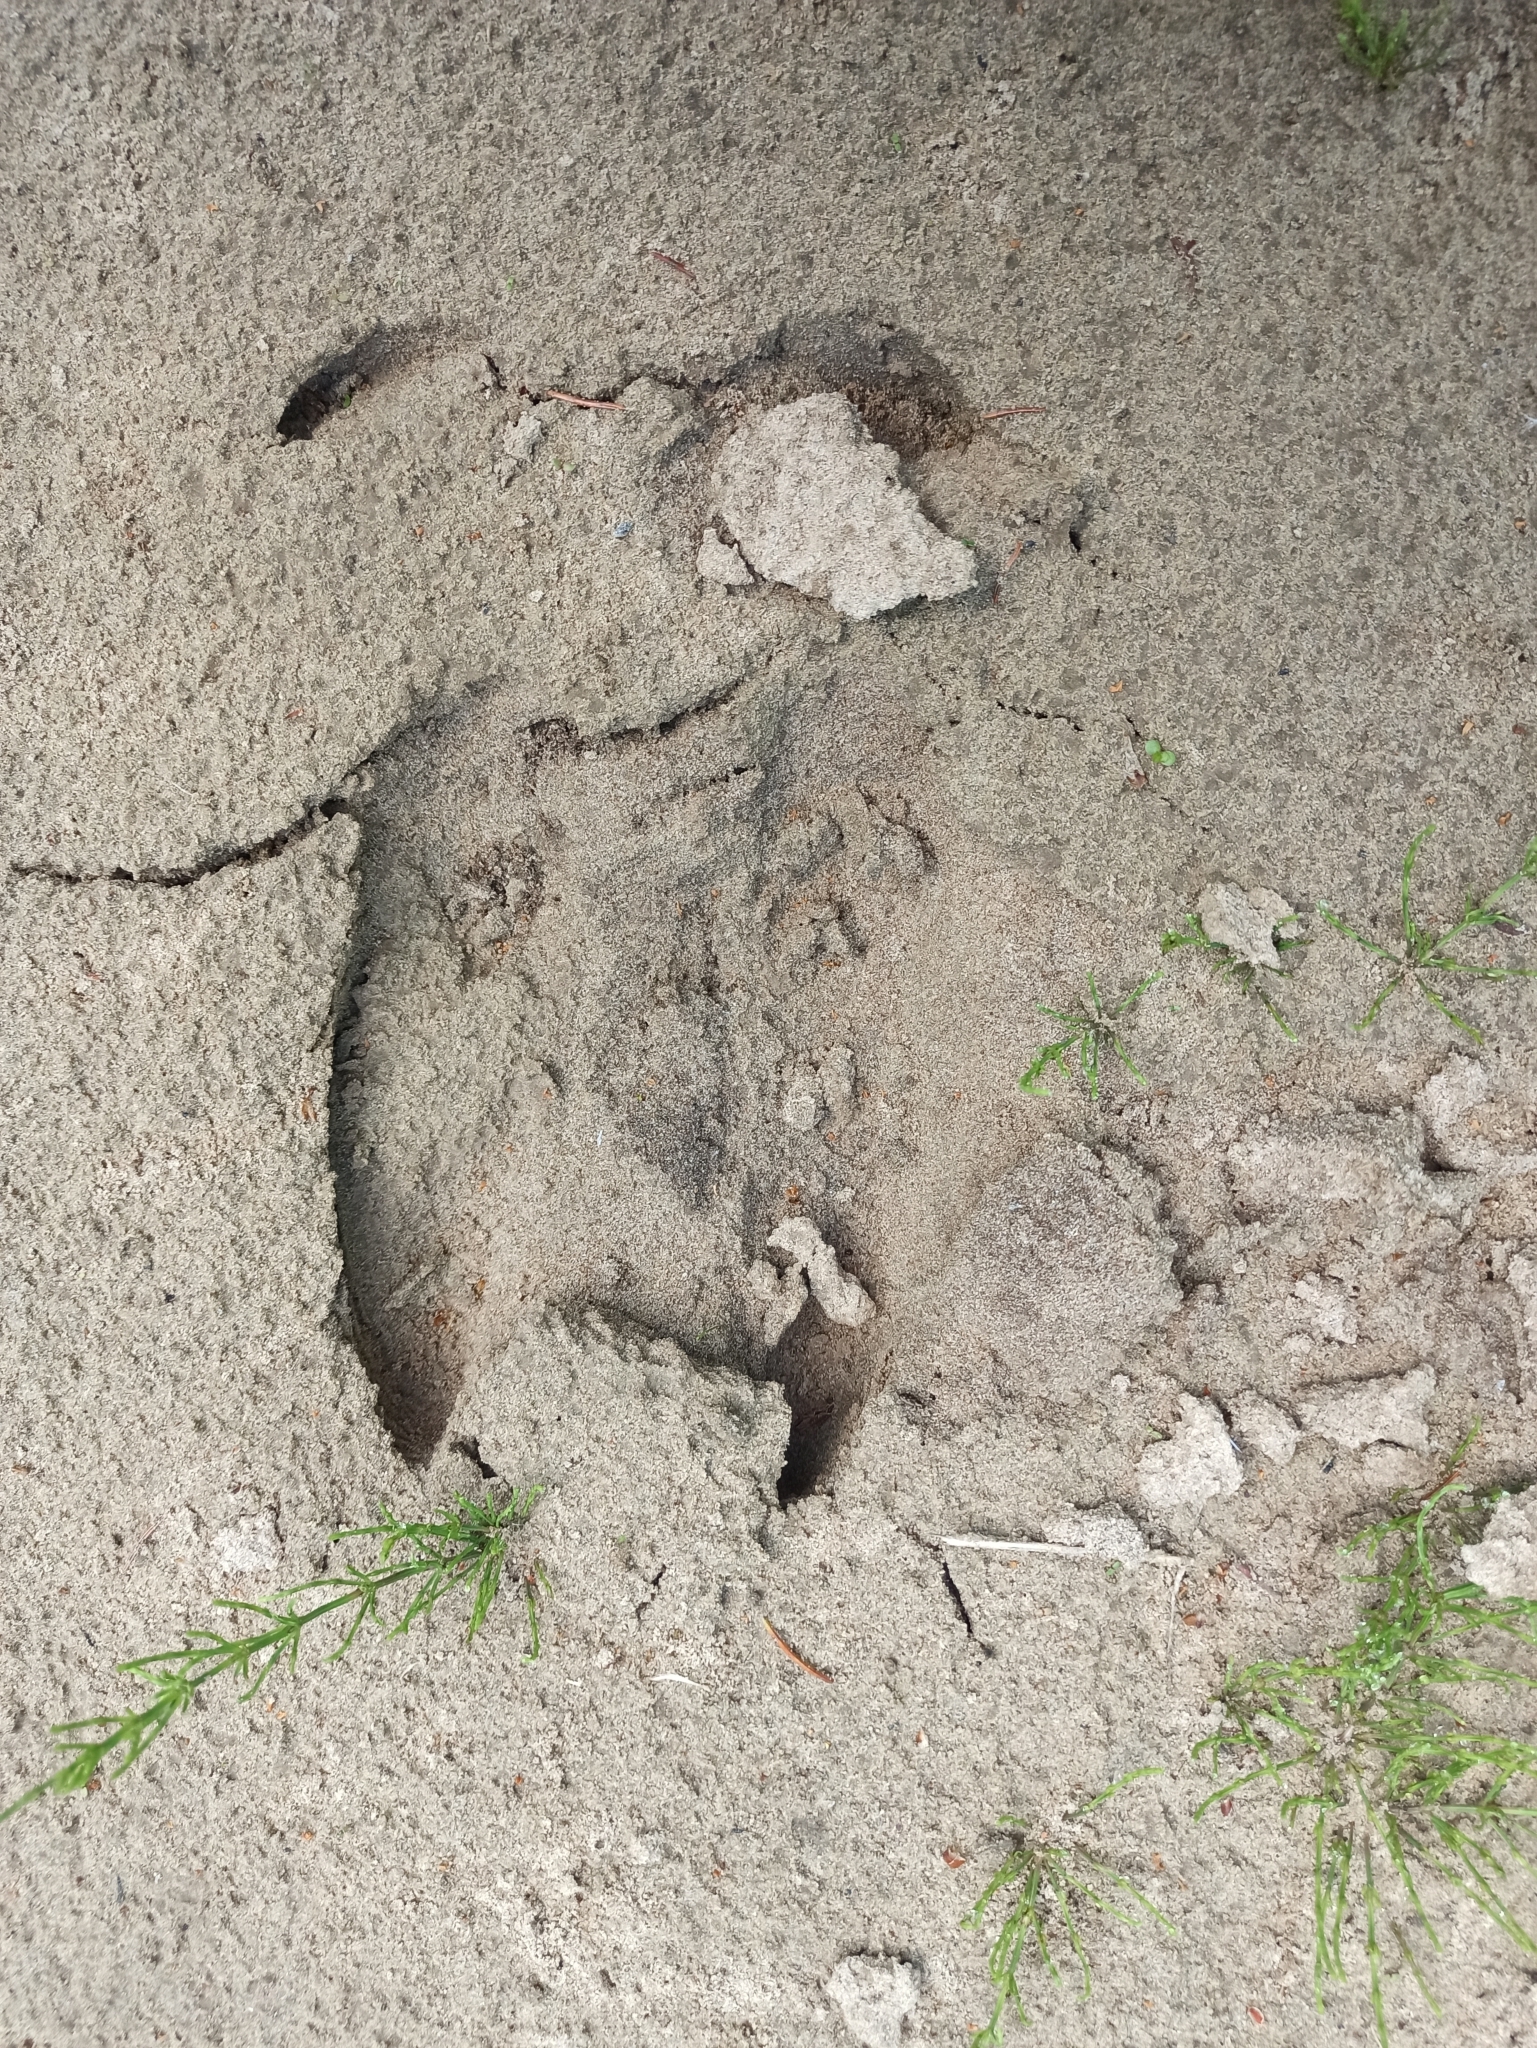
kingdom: Animalia
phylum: Chordata
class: Mammalia
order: Artiodactyla
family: Cervidae
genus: Alces
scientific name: Alces alces
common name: Moose
